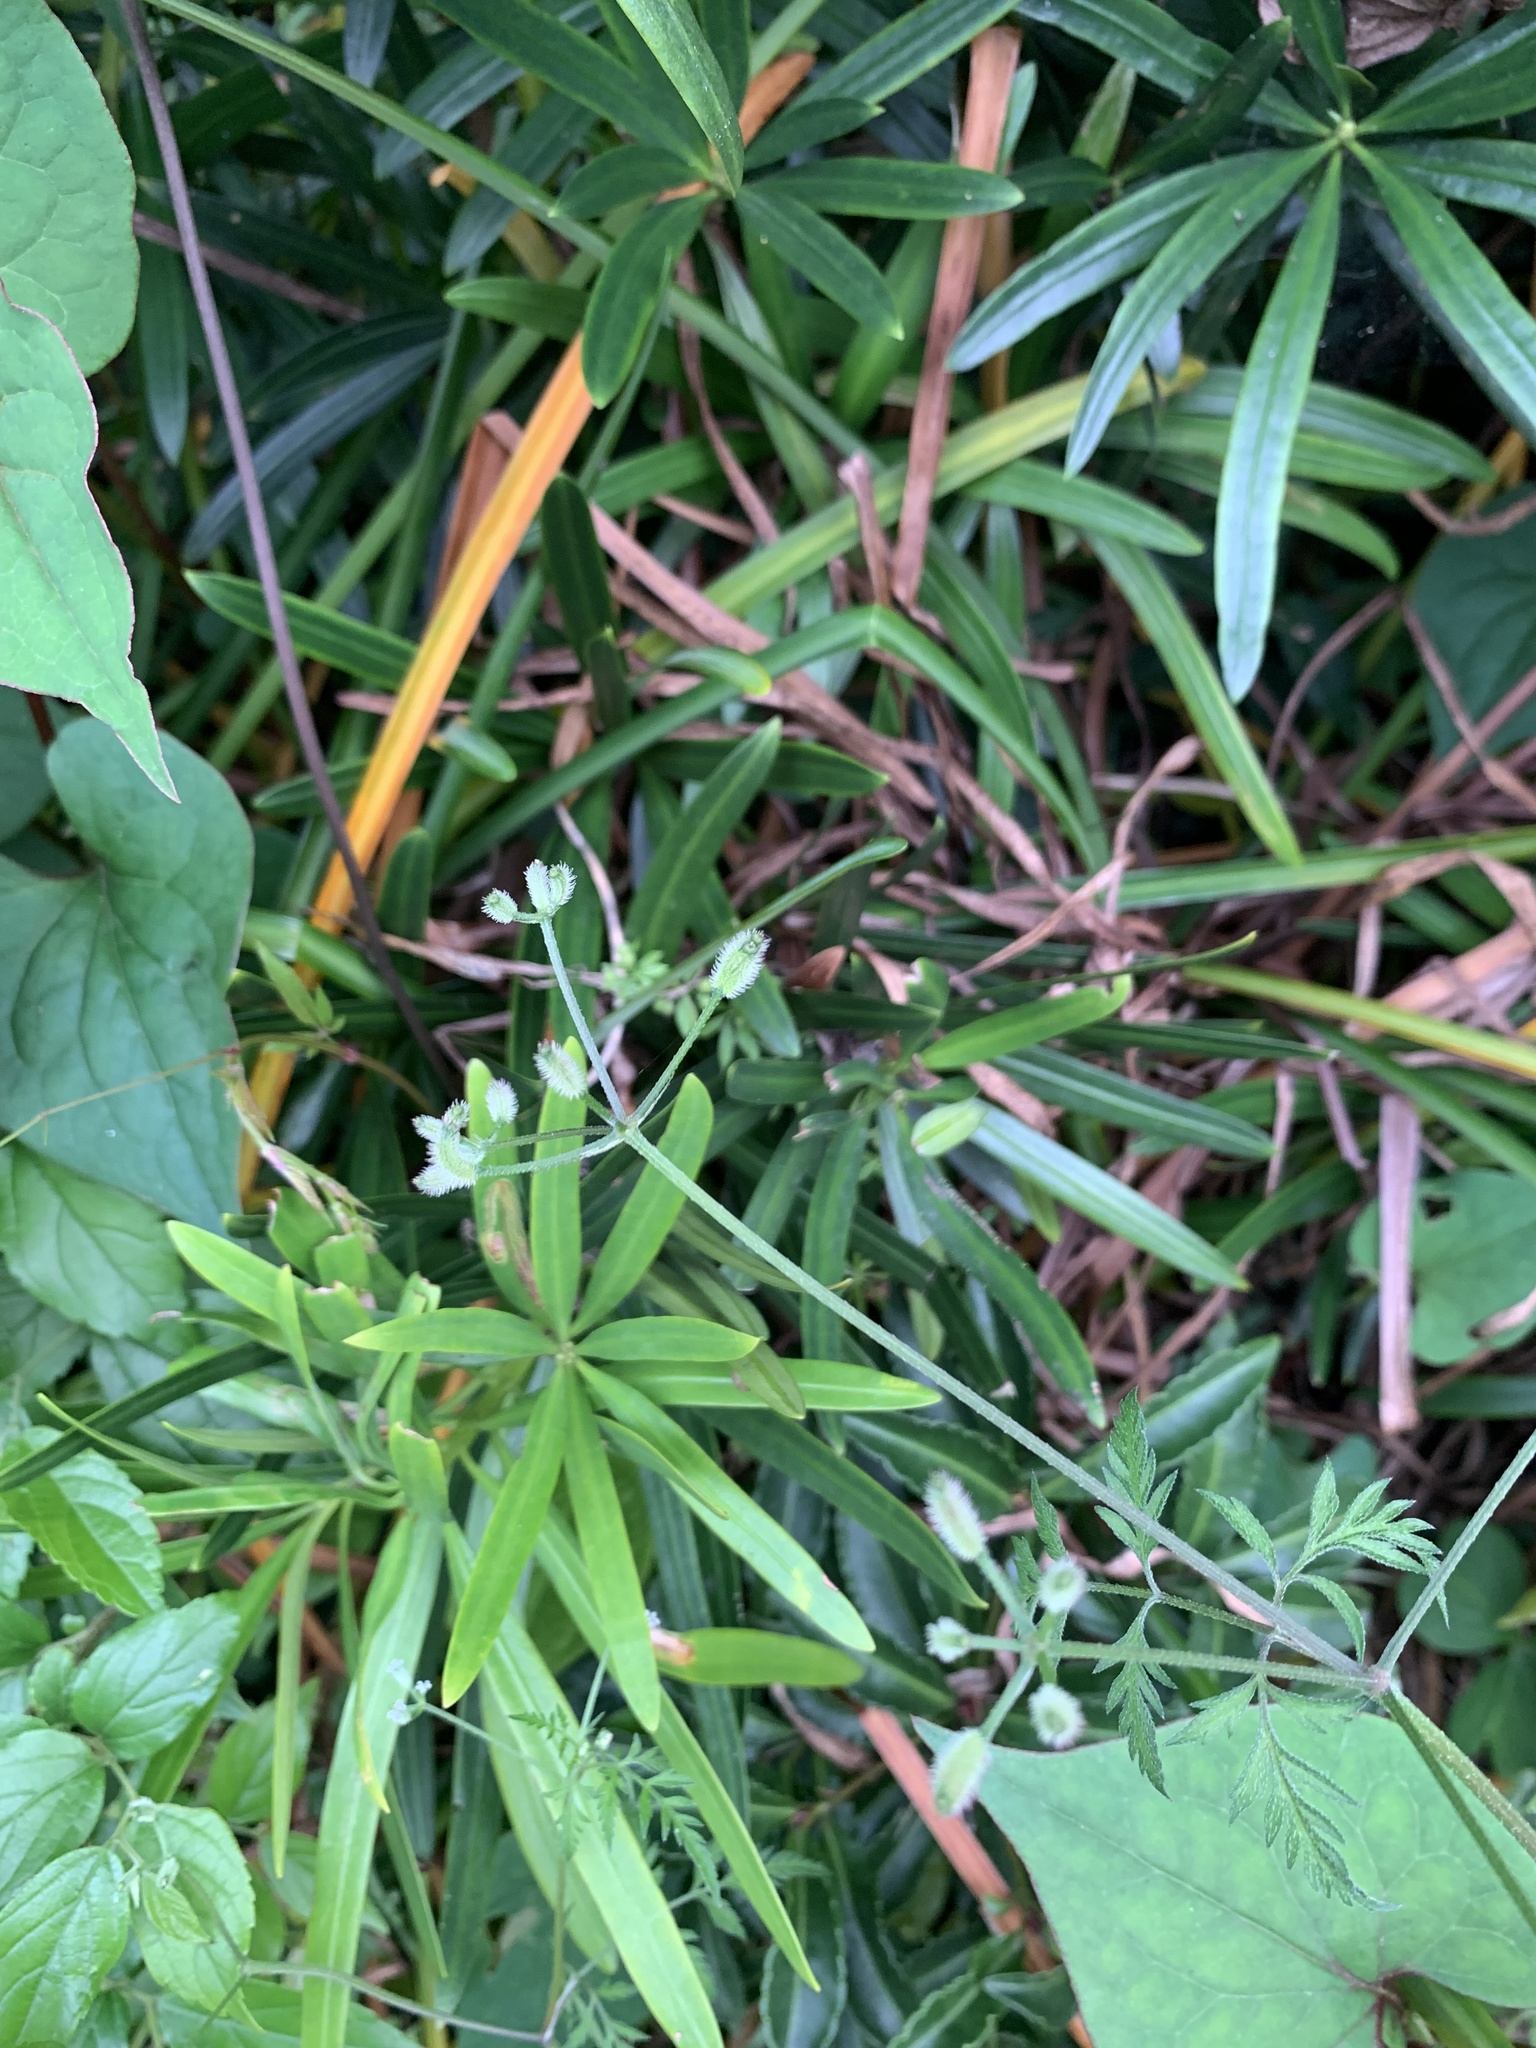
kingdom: Plantae
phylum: Tracheophyta
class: Magnoliopsida
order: Apiales
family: Apiaceae
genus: Torilis
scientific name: Torilis scabra
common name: Rough hedgeparsley
